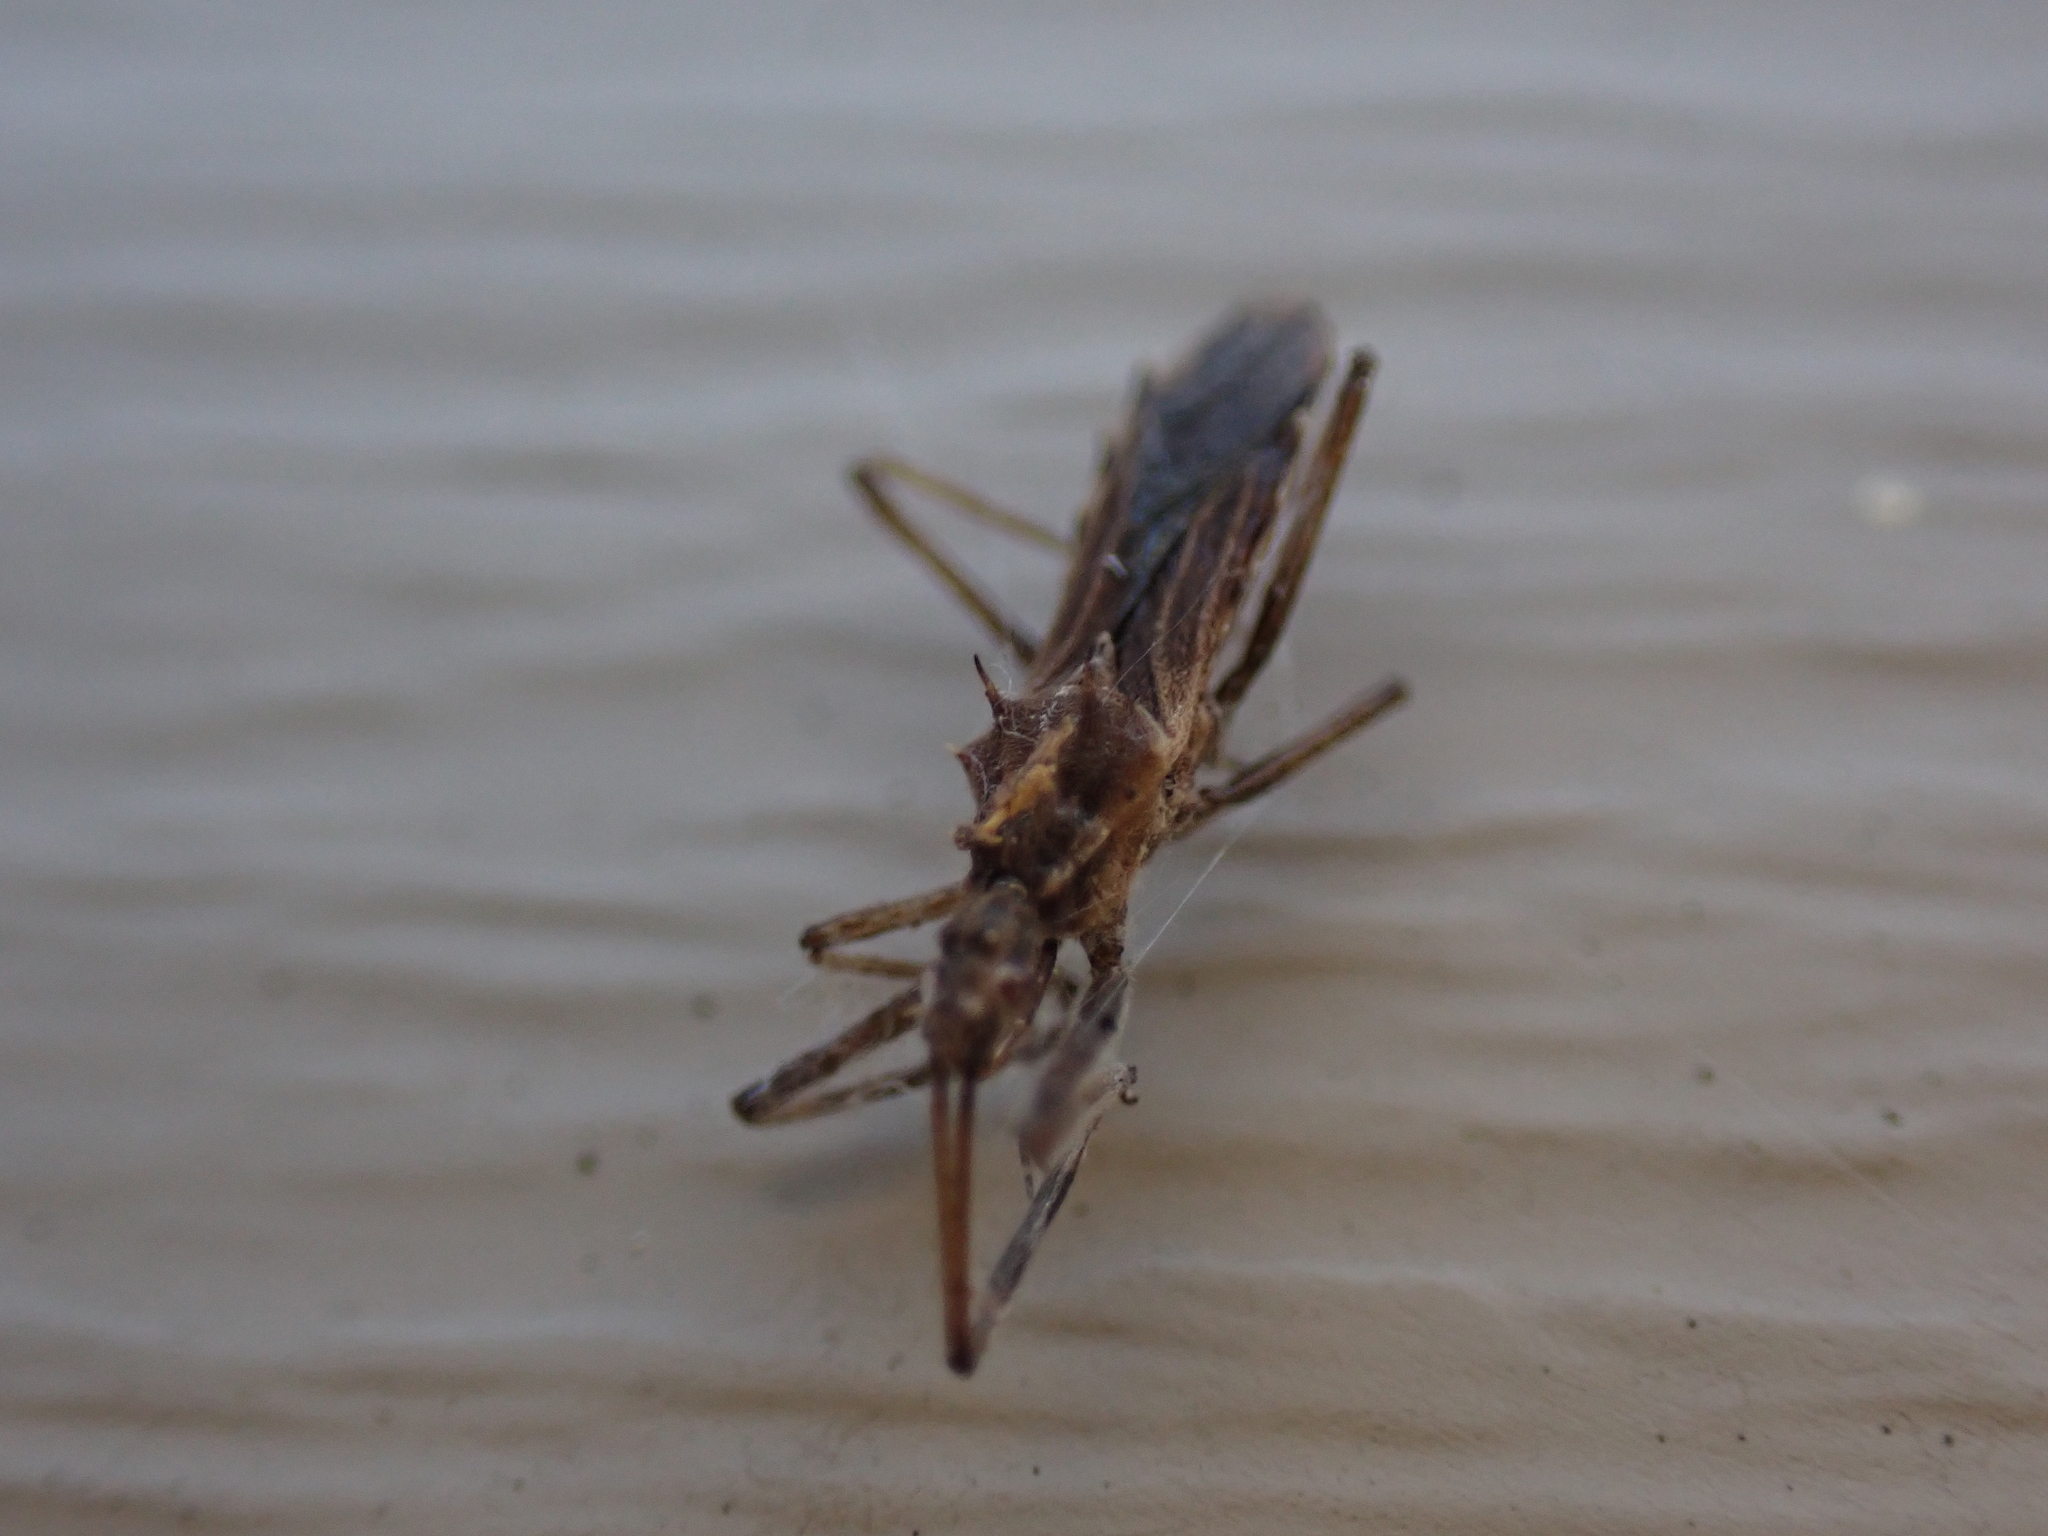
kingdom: Animalia
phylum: Arthropoda
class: Insecta
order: Hemiptera
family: Reduviidae
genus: Atrachelus
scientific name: Atrachelus cinereus
